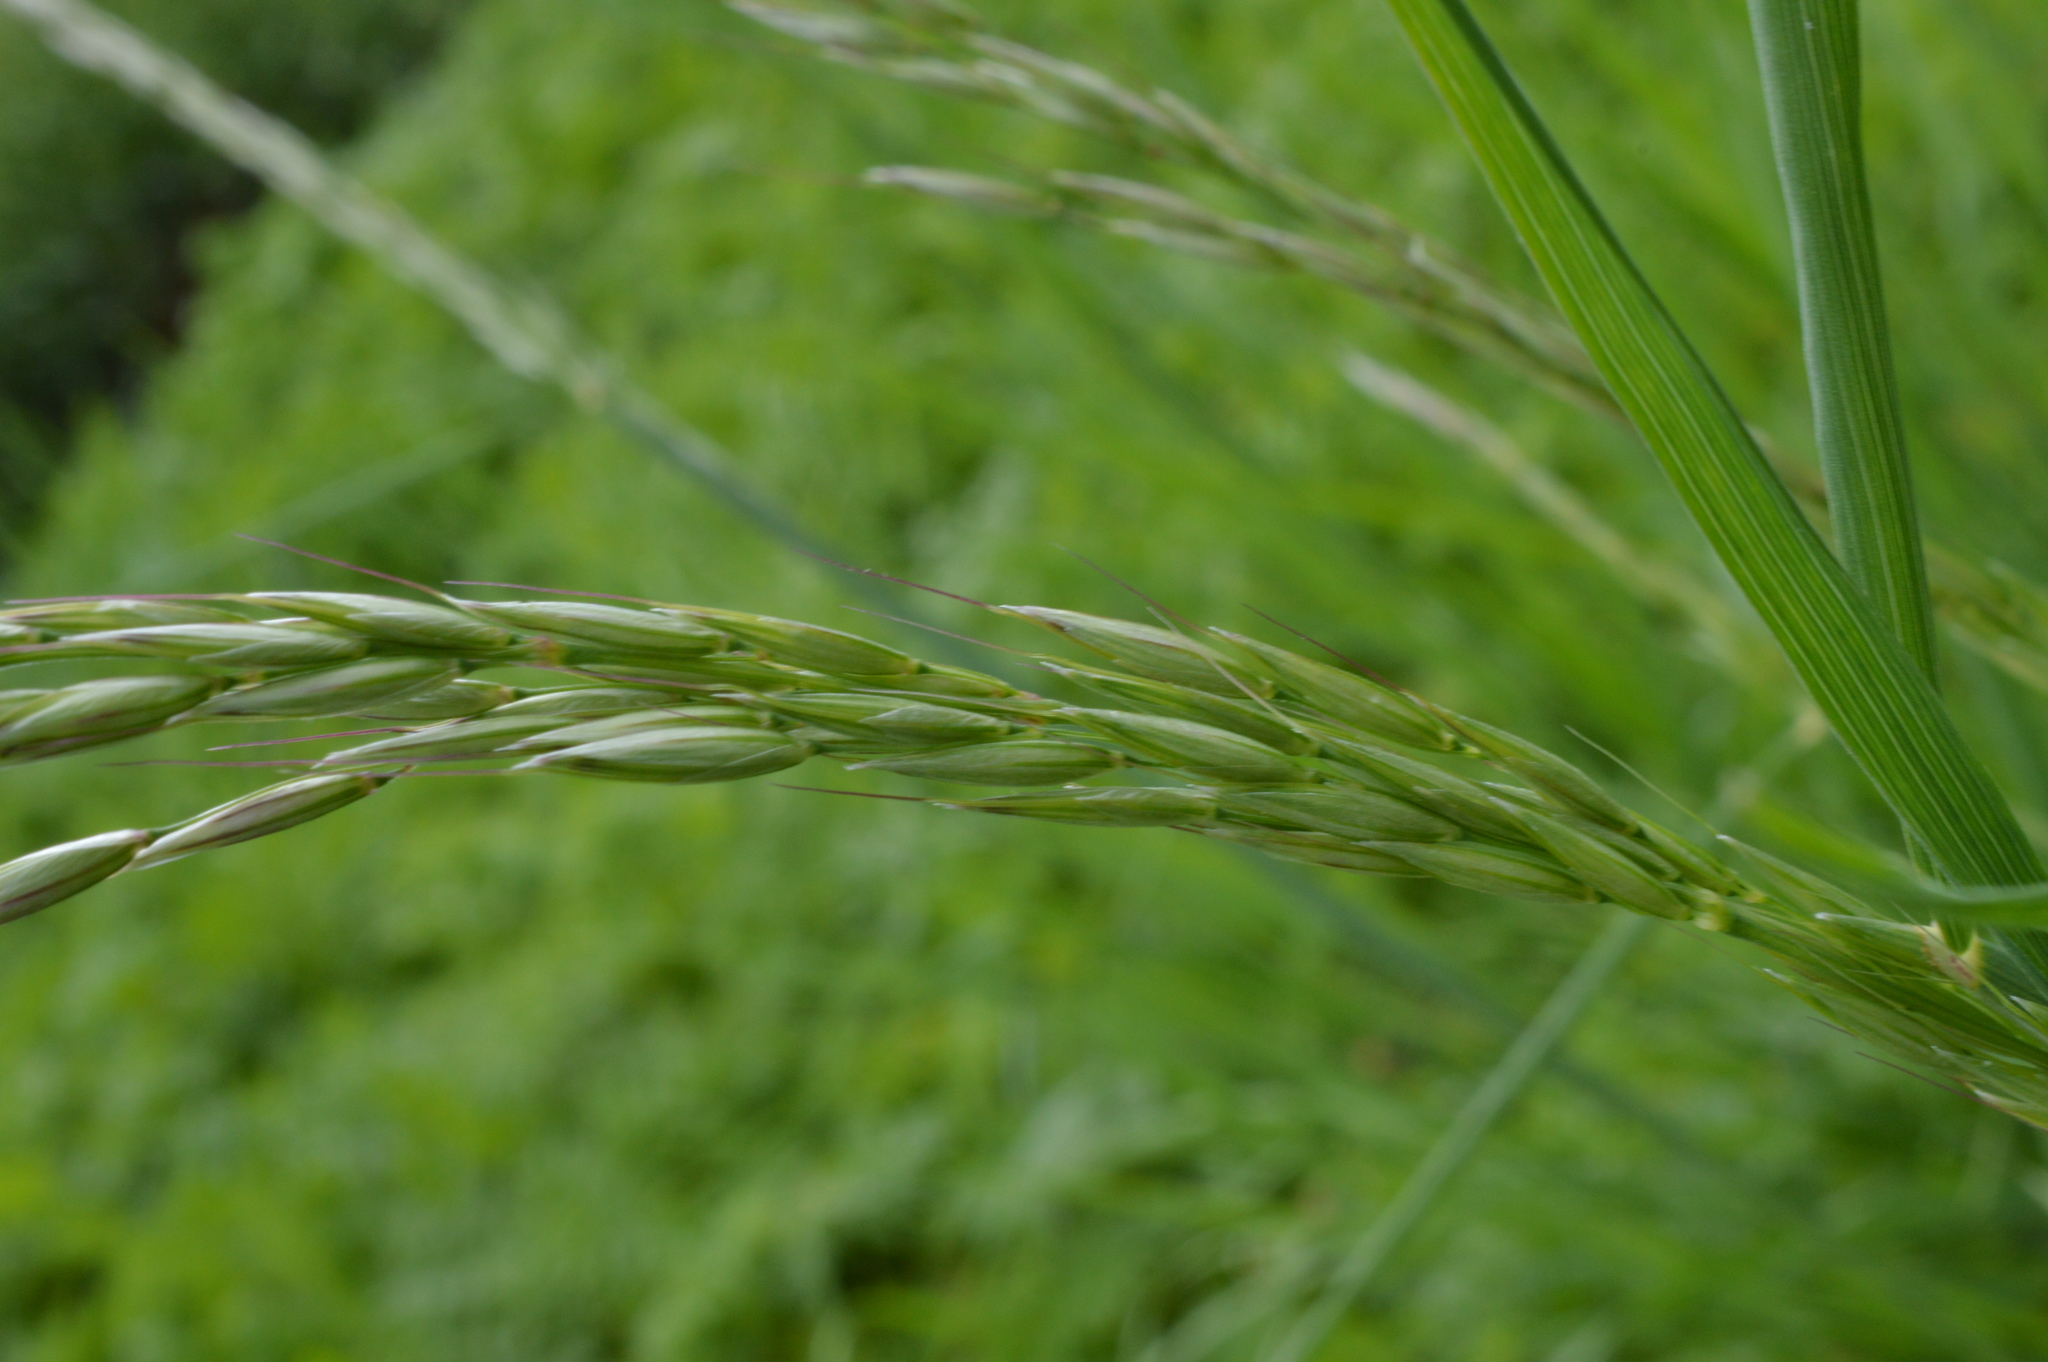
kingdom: Plantae
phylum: Tracheophyta
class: Liliopsida
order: Poales
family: Poaceae
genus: Arrhenatherum
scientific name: Arrhenatherum elatius
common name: Tall oatgrass
